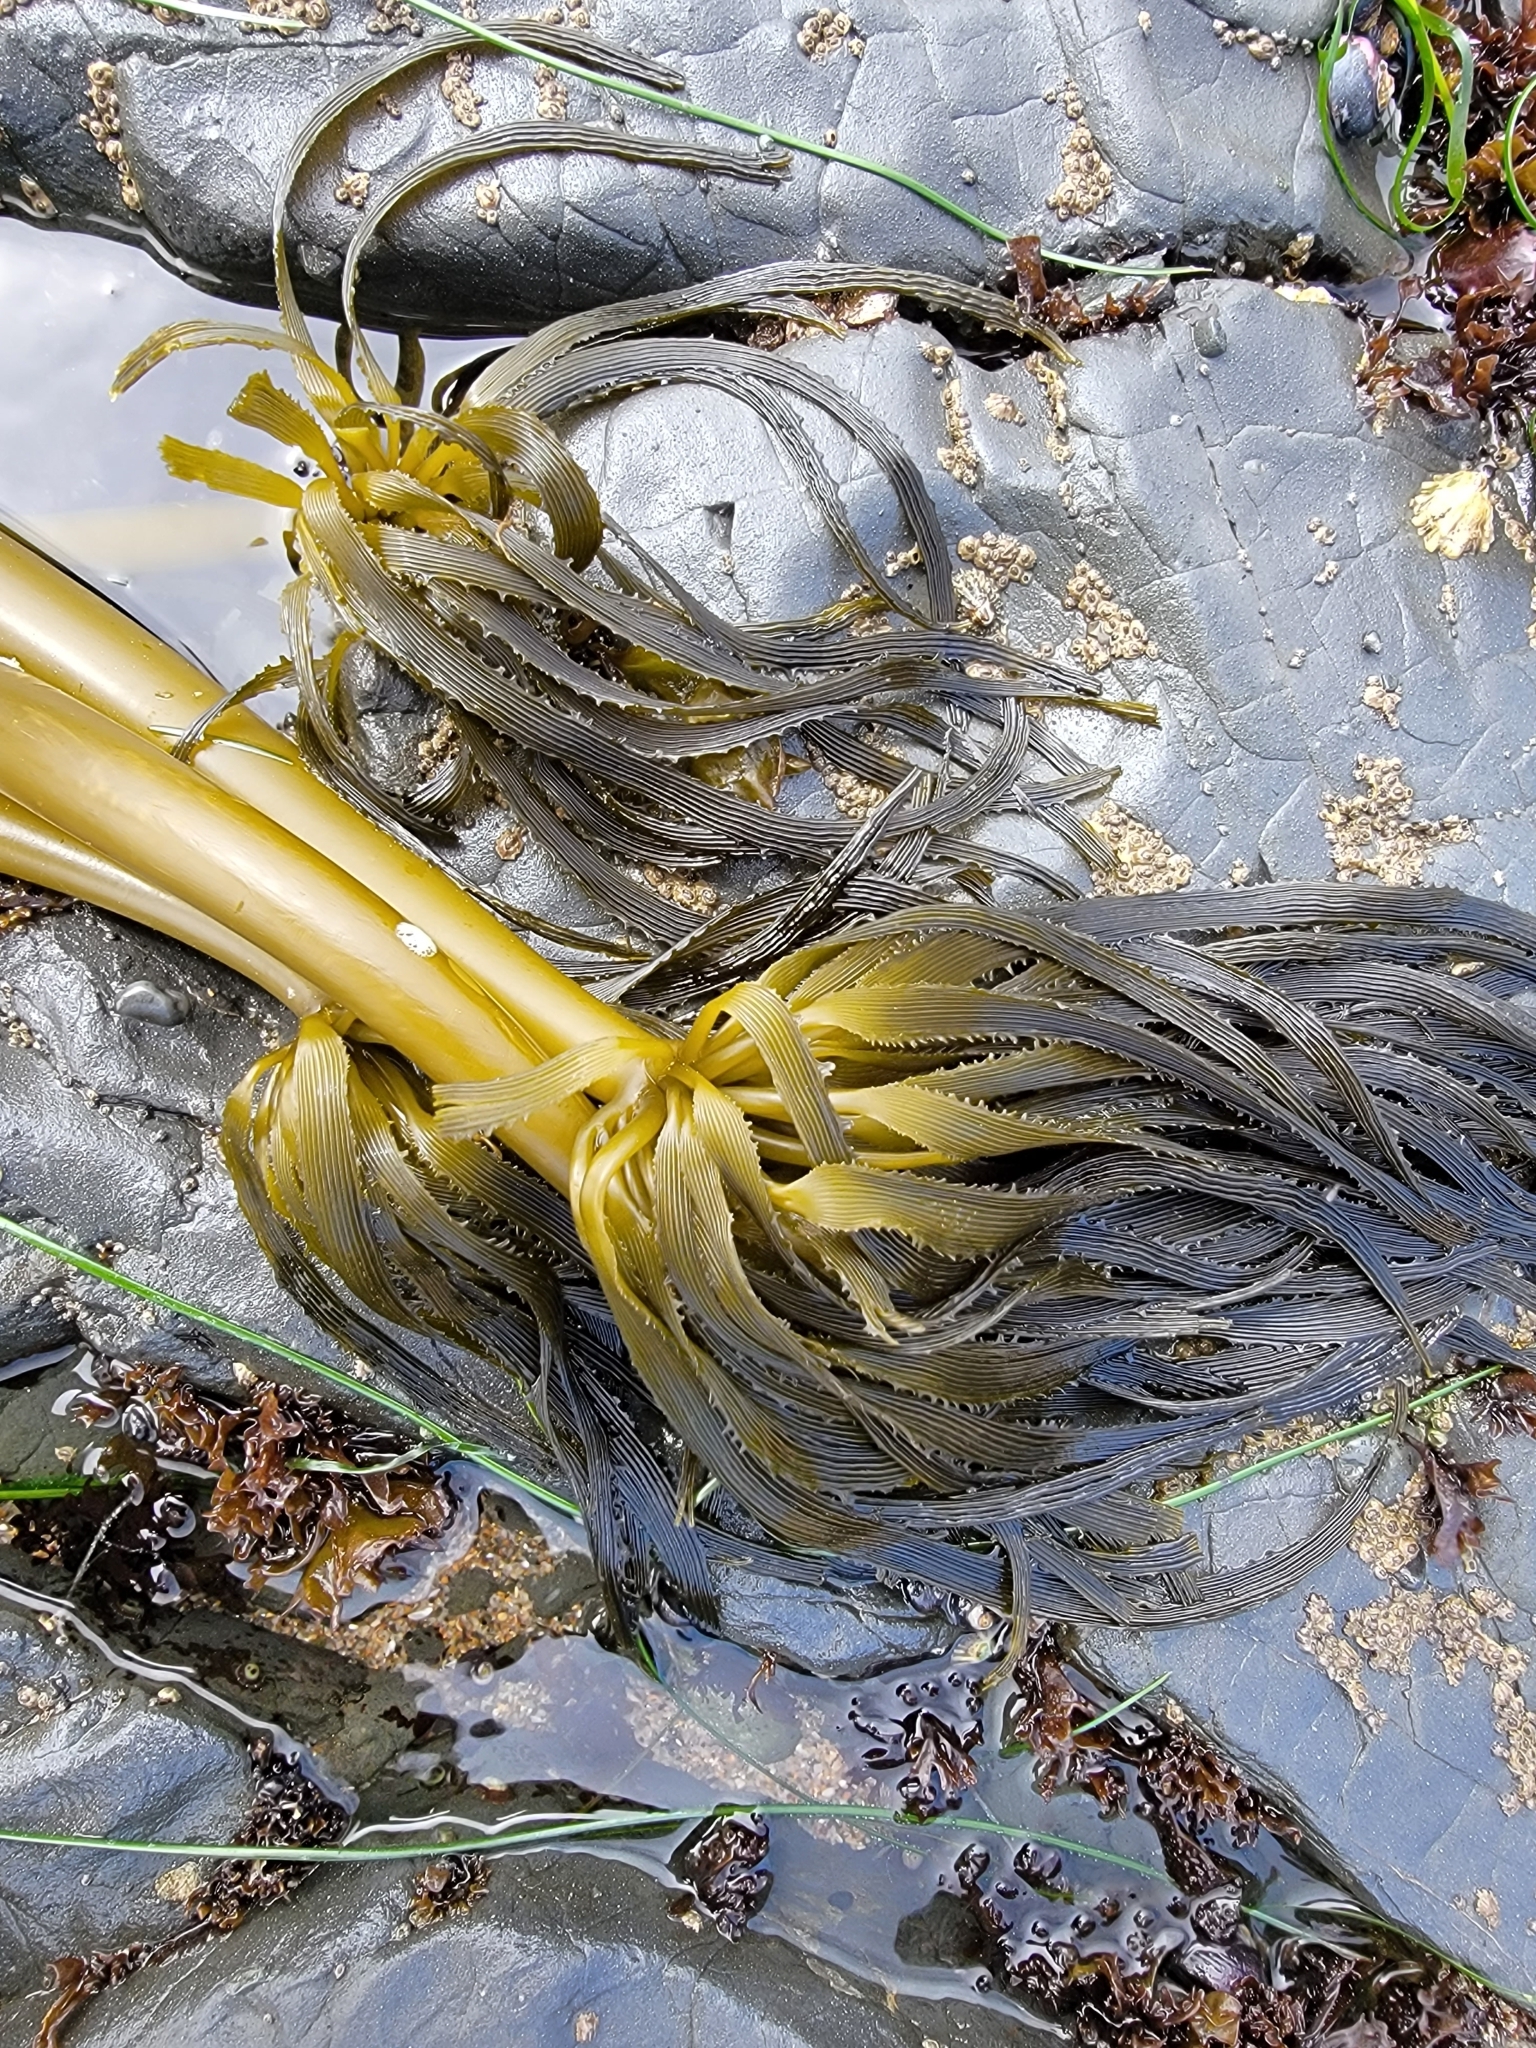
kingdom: Chromista
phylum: Ochrophyta
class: Phaeophyceae
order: Laminariales
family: Laminariaceae
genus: Postelsia
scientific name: Postelsia palmiformis
